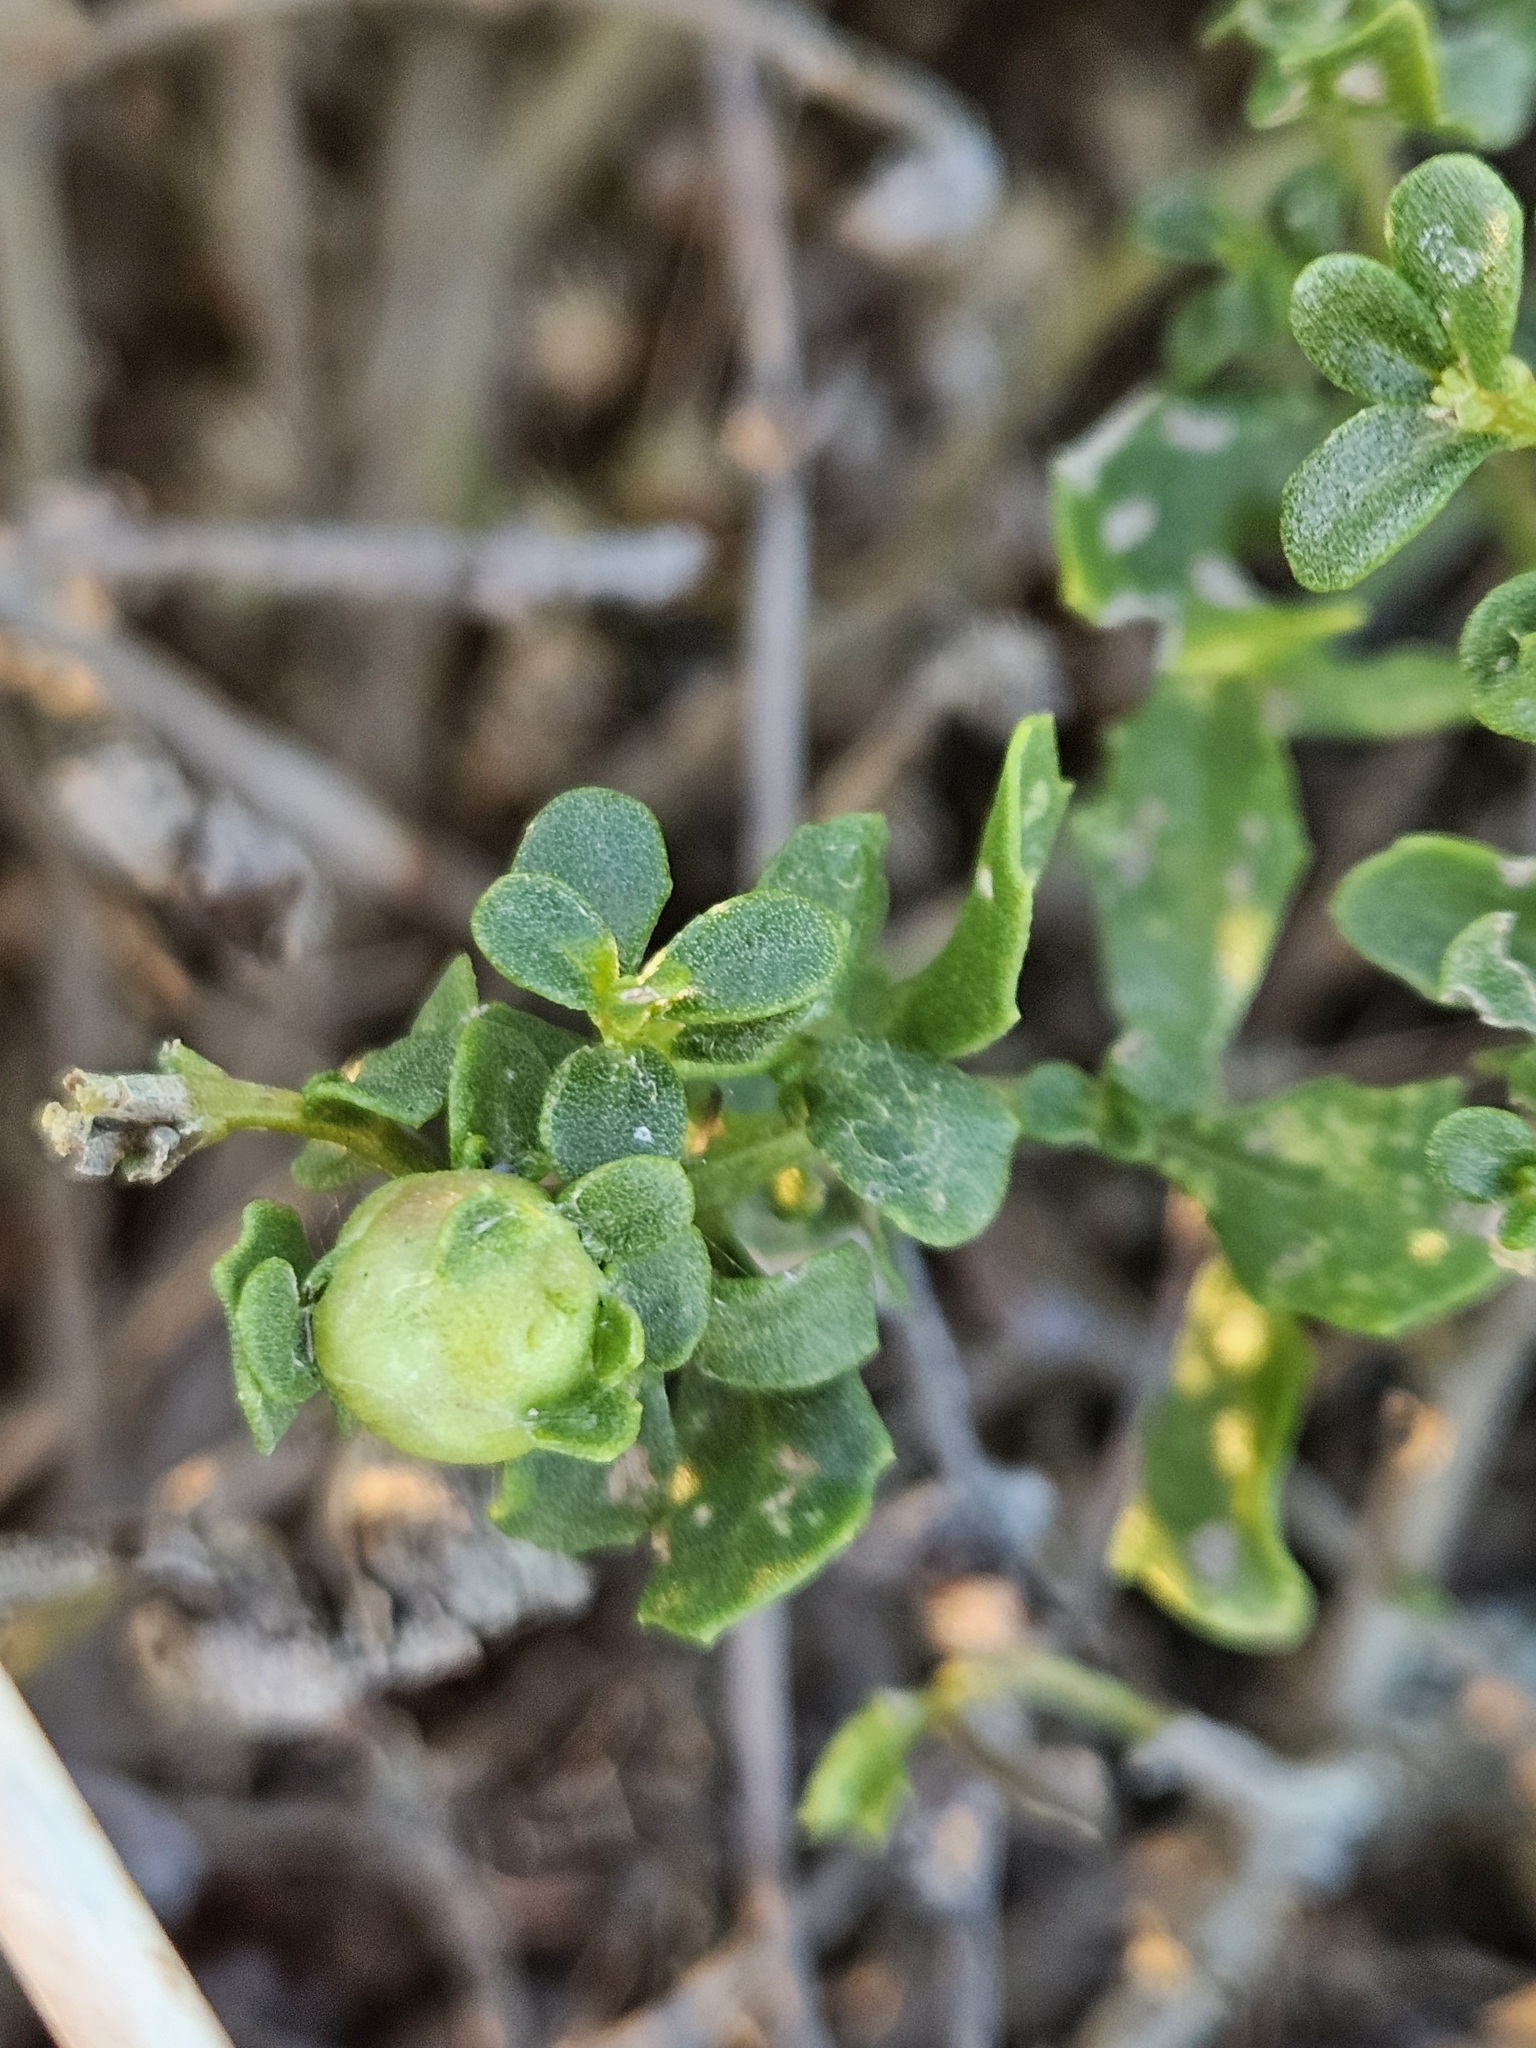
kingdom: Animalia
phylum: Arthropoda
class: Insecta
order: Diptera
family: Cecidomyiidae
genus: Rhopalomyia
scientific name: Rhopalomyia californica
